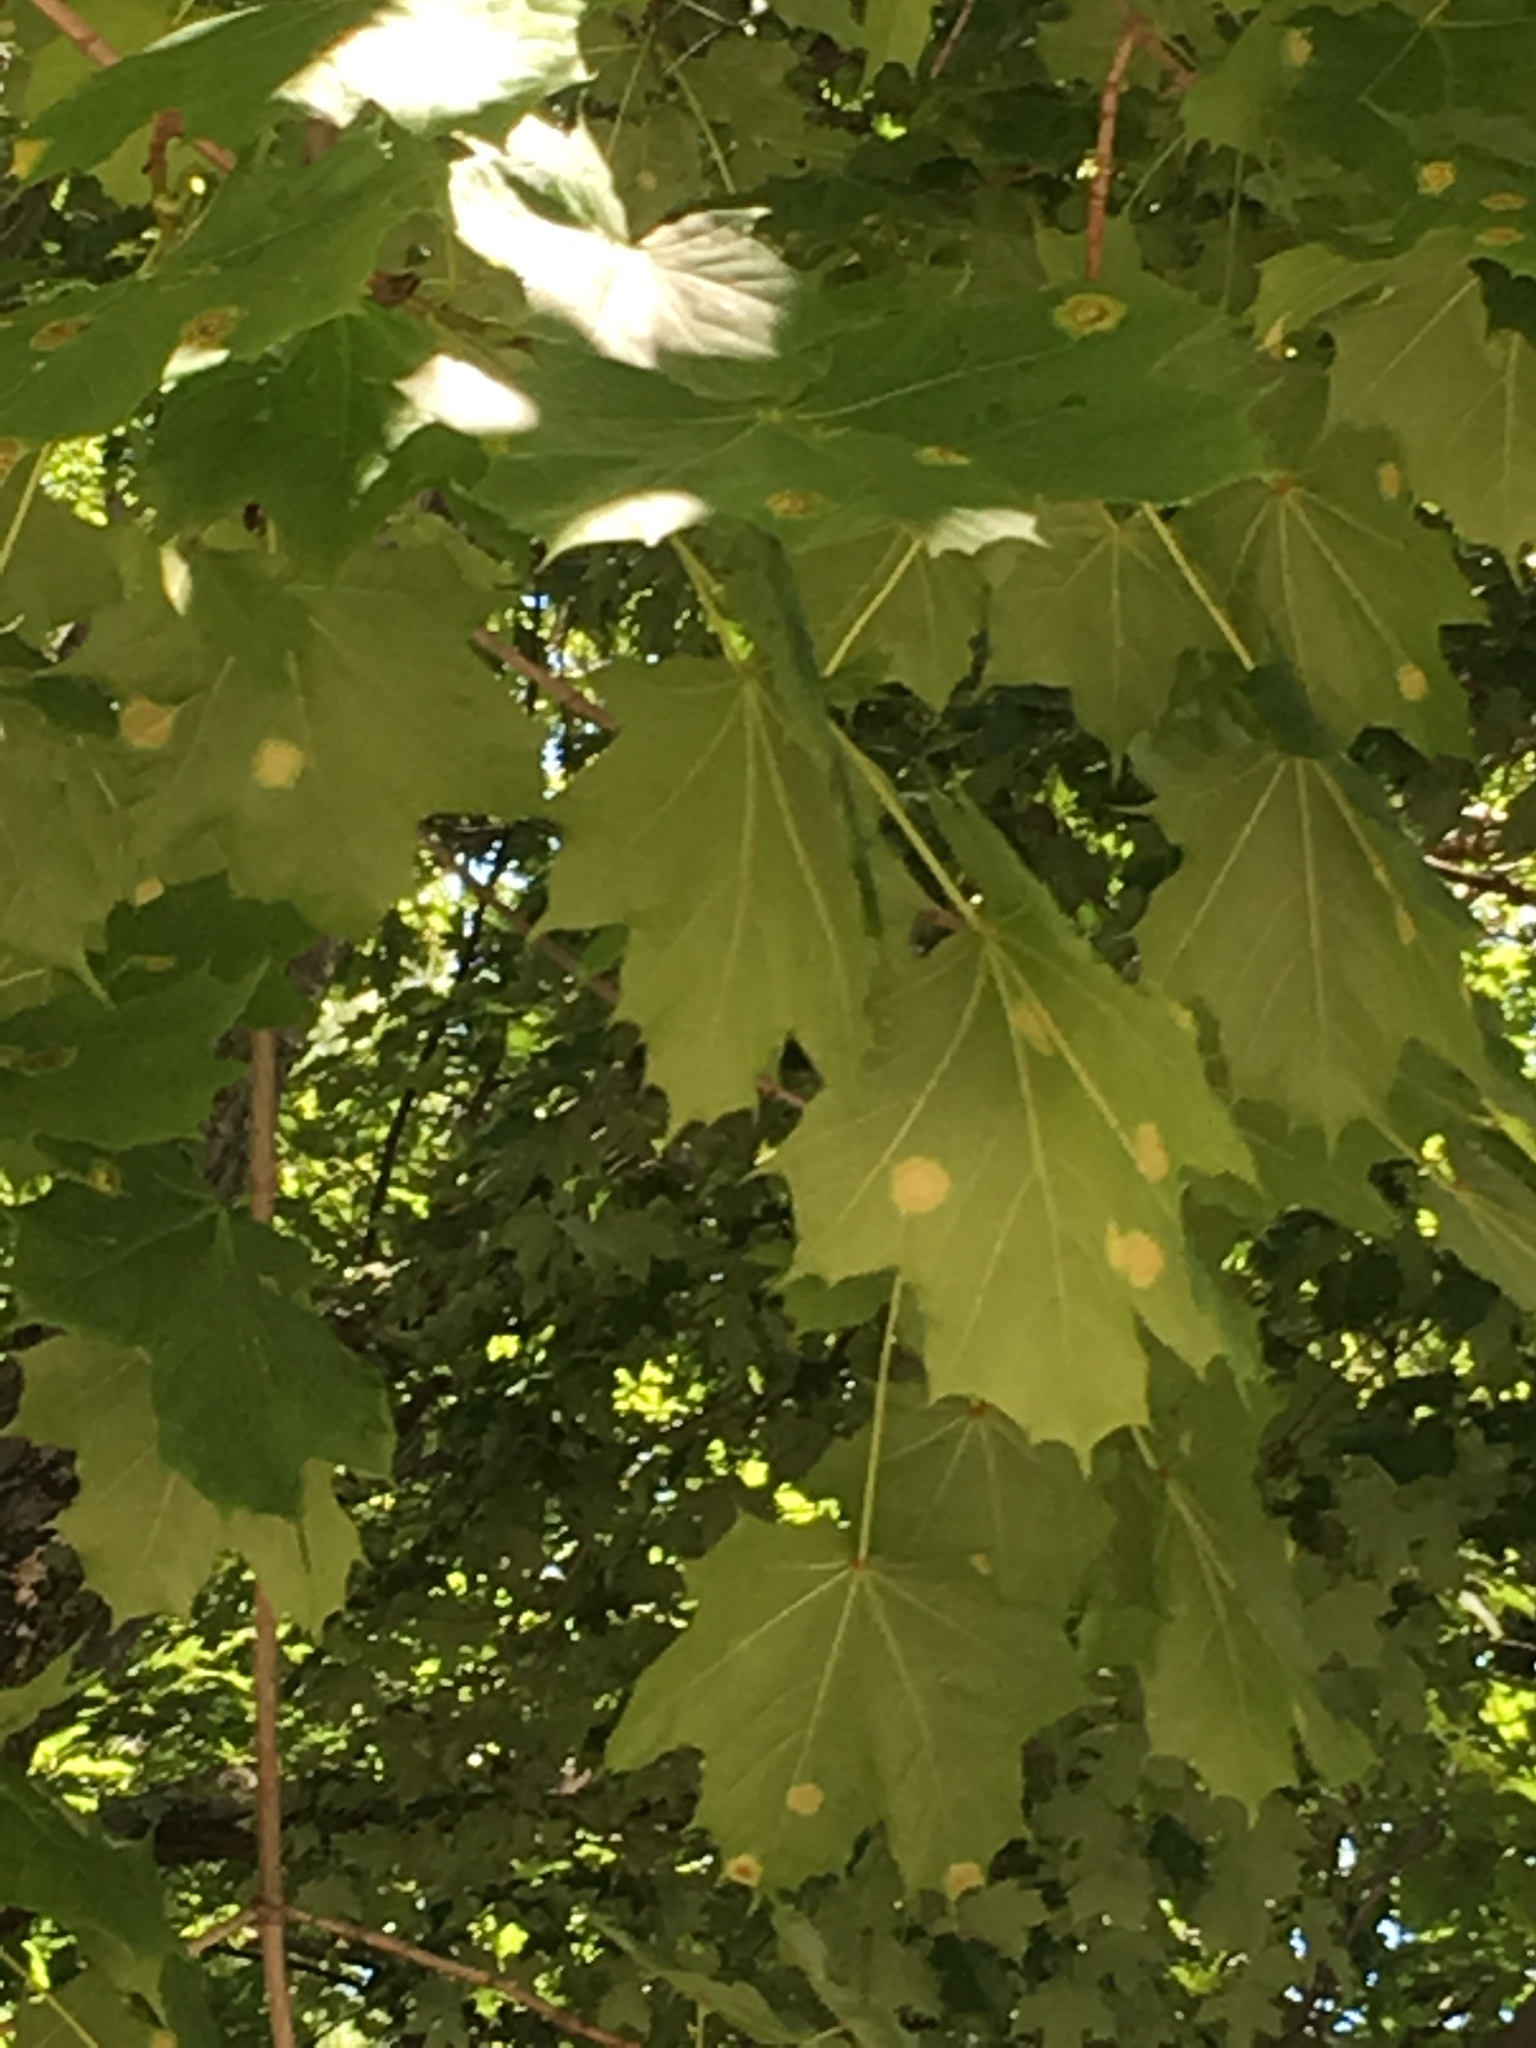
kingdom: Fungi
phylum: Ascomycota
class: Leotiomycetes
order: Rhytismatales
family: Rhytismataceae
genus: Rhytisma
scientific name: Rhytisma acerinum
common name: European tar spot
